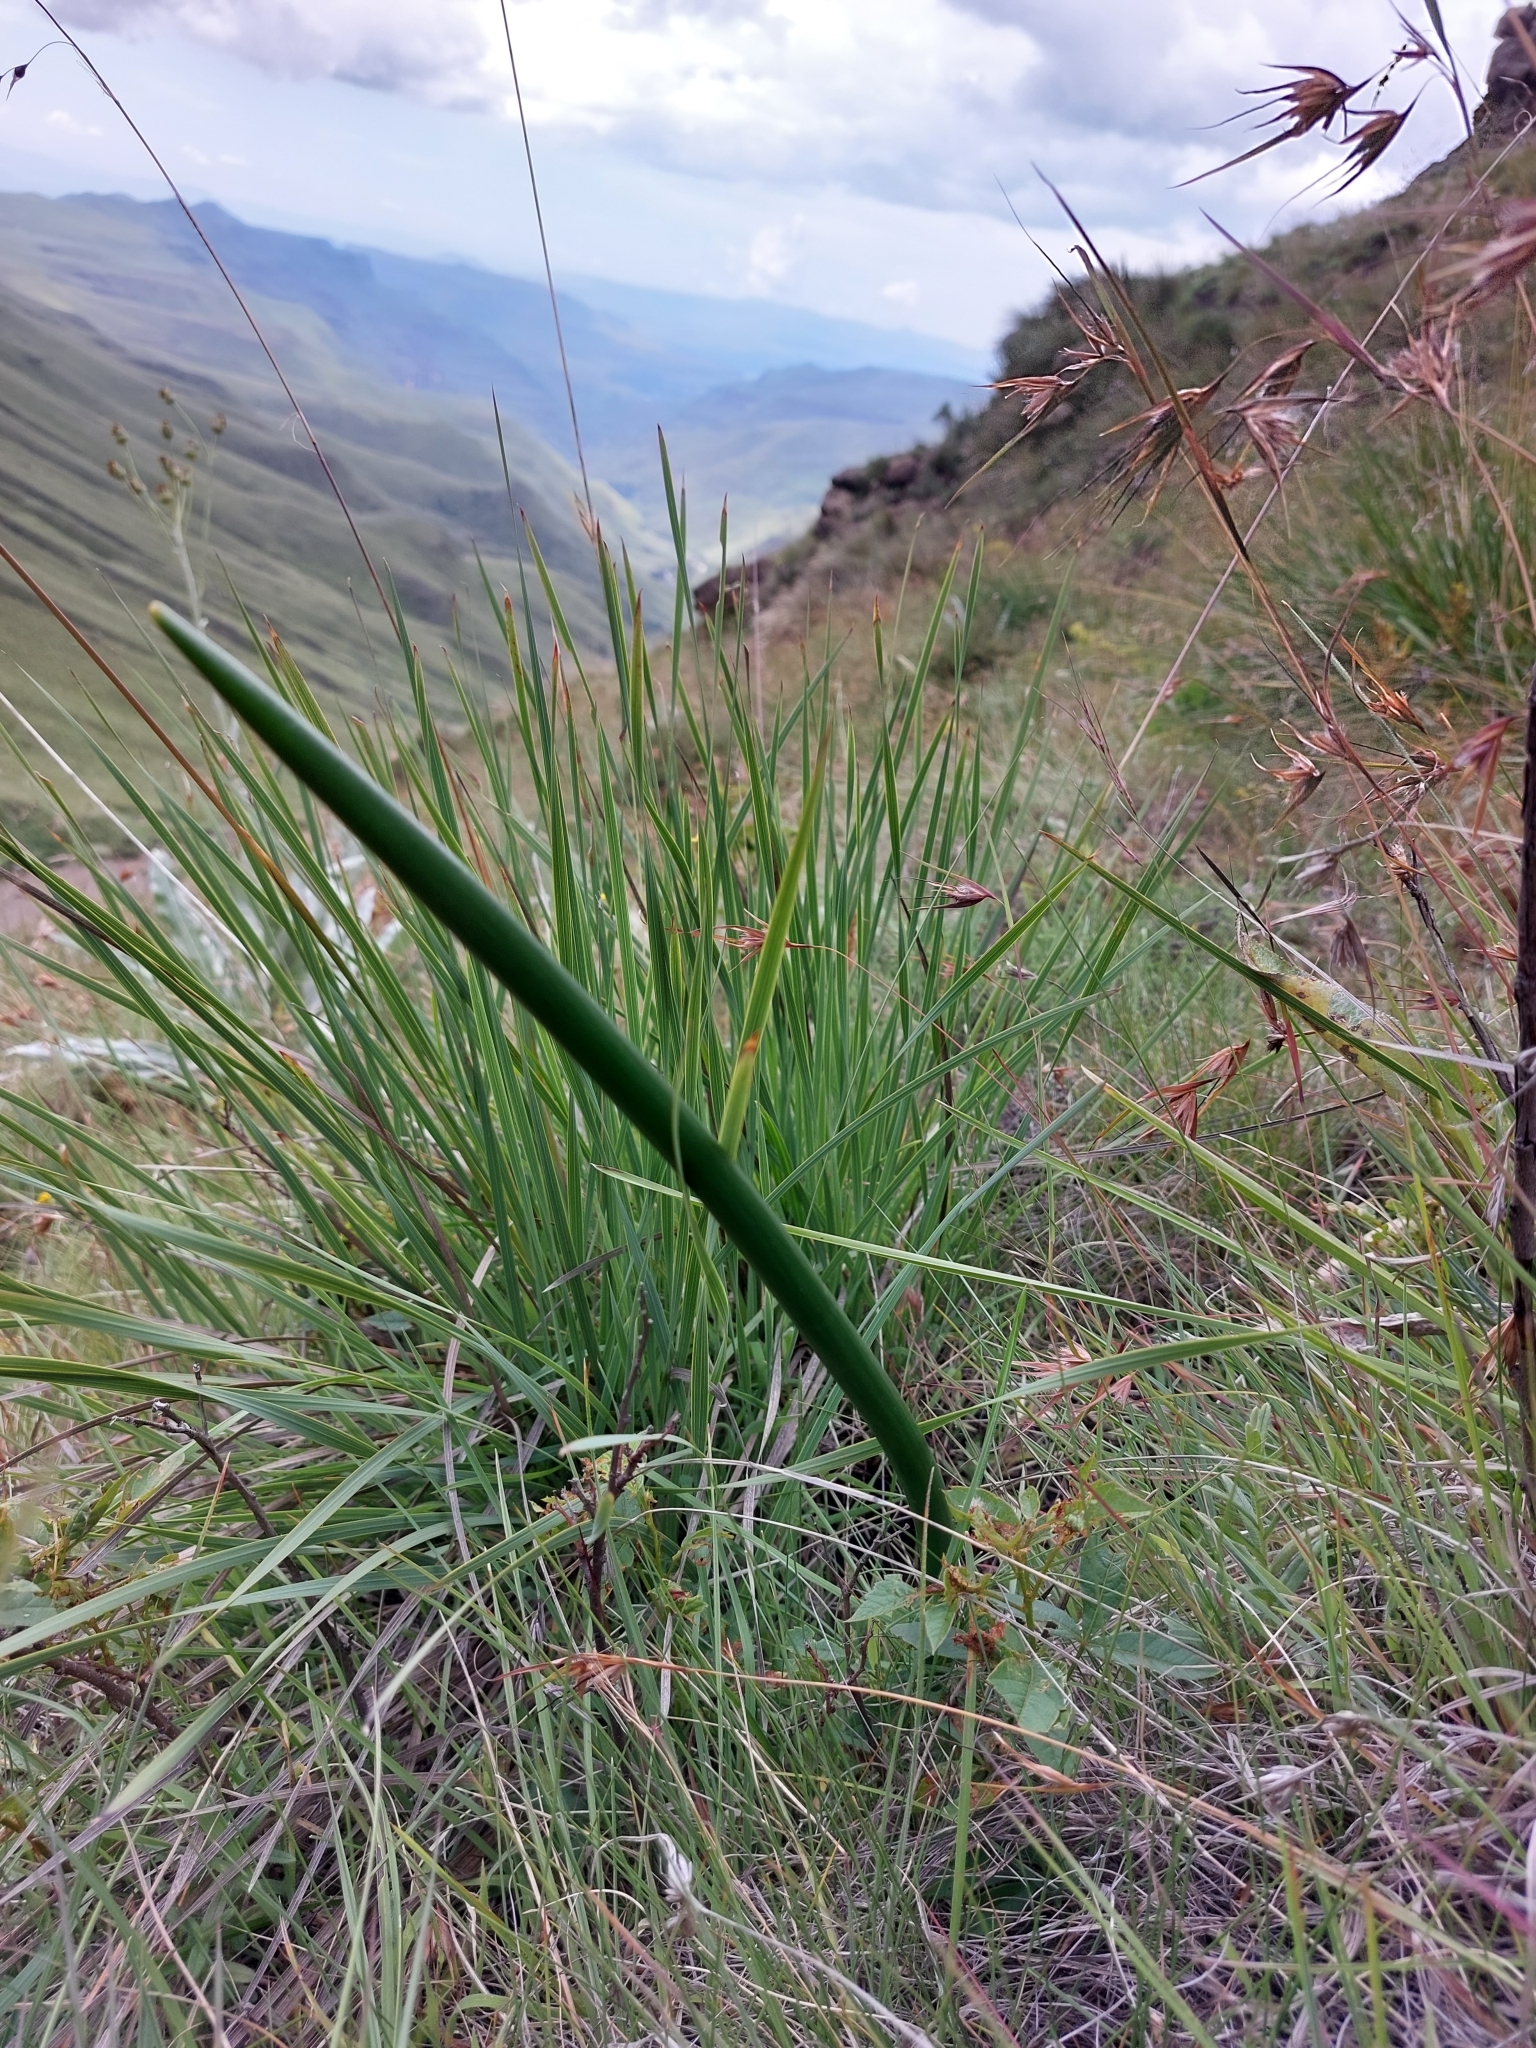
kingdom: Plantae
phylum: Tracheophyta
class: Liliopsida
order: Asparagales
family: Asparagaceae
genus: Drimia
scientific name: Drimia macrocentra
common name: Natal slangkop
